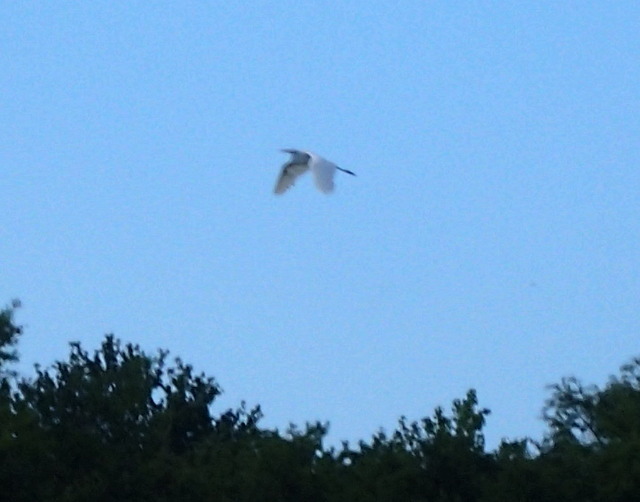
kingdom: Animalia
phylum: Chordata
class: Aves
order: Pelecaniformes
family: Ardeidae
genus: Ardea
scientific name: Ardea alba
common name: Great egret
